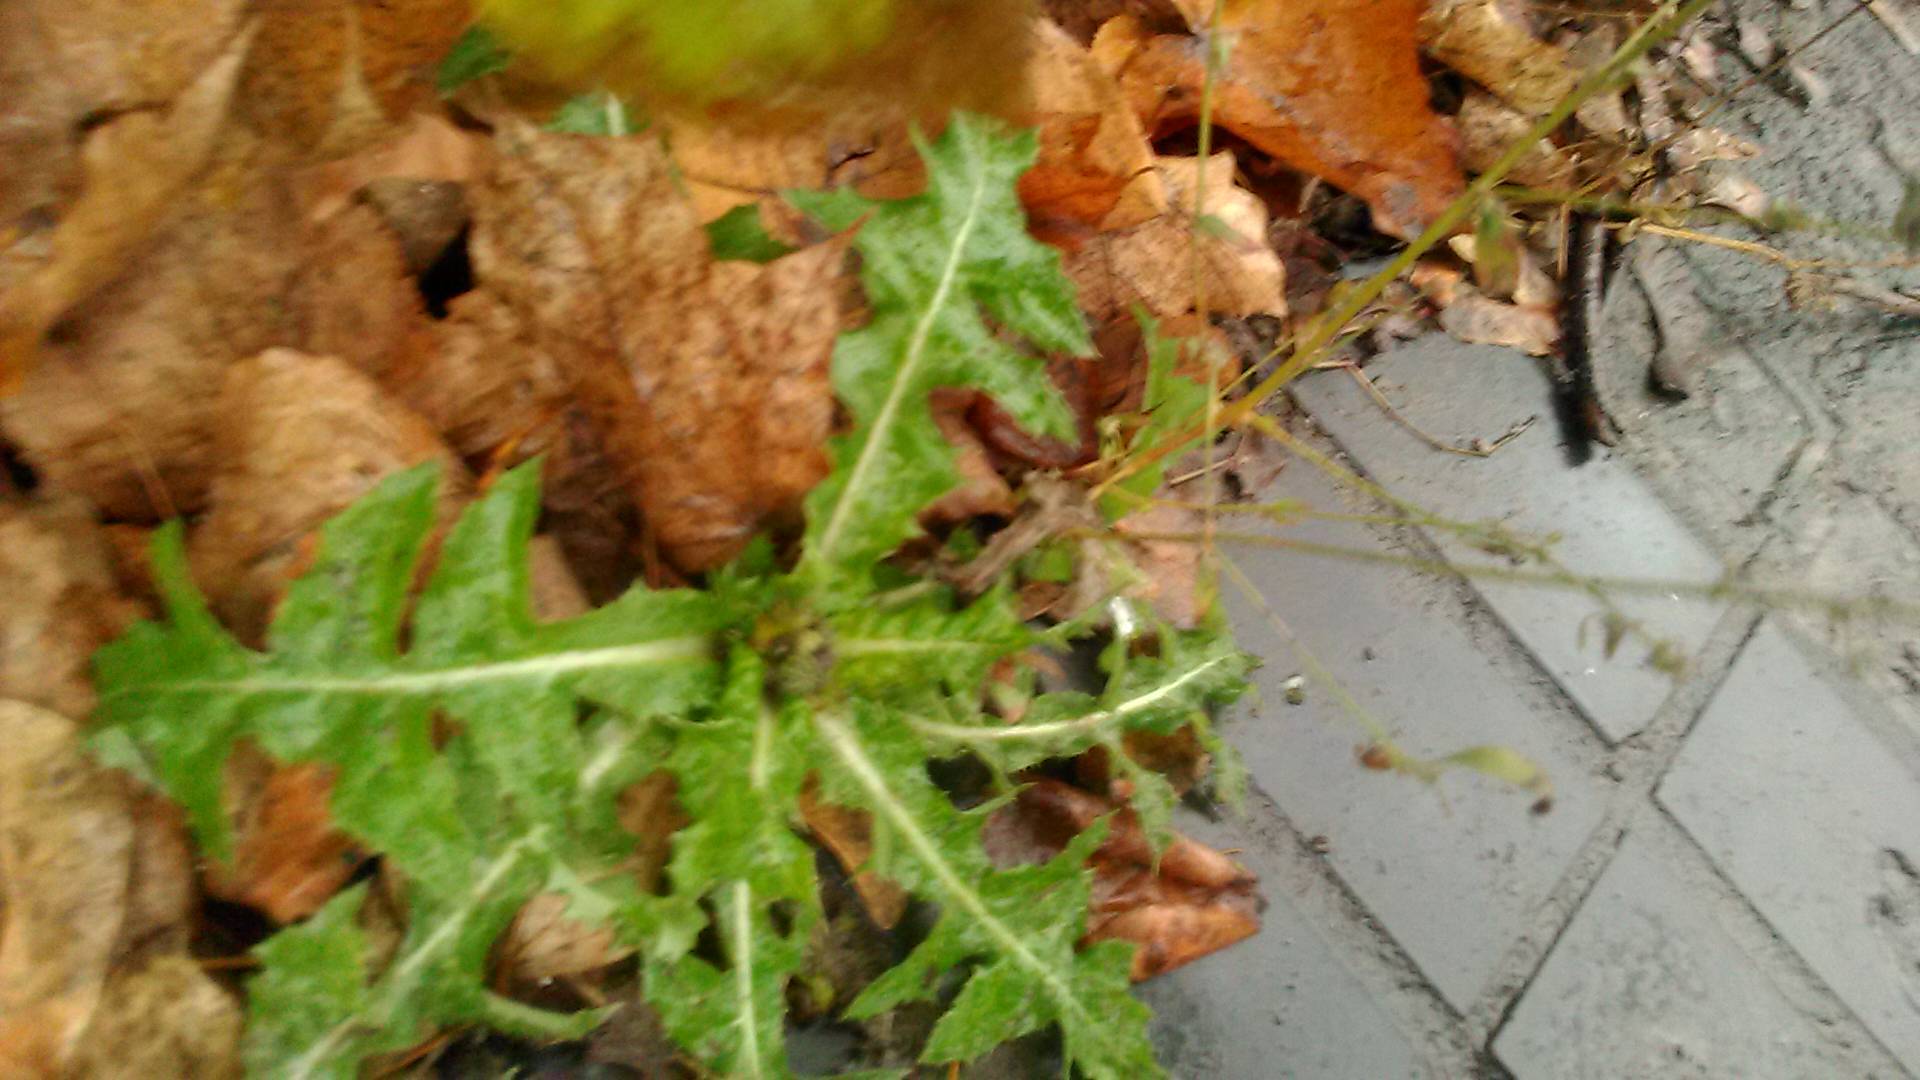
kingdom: Plantae
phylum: Tracheophyta
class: Magnoliopsida
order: Asterales
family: Asteraceae
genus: Sonchus
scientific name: Sonchus asper
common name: Prickly sow-thistle
